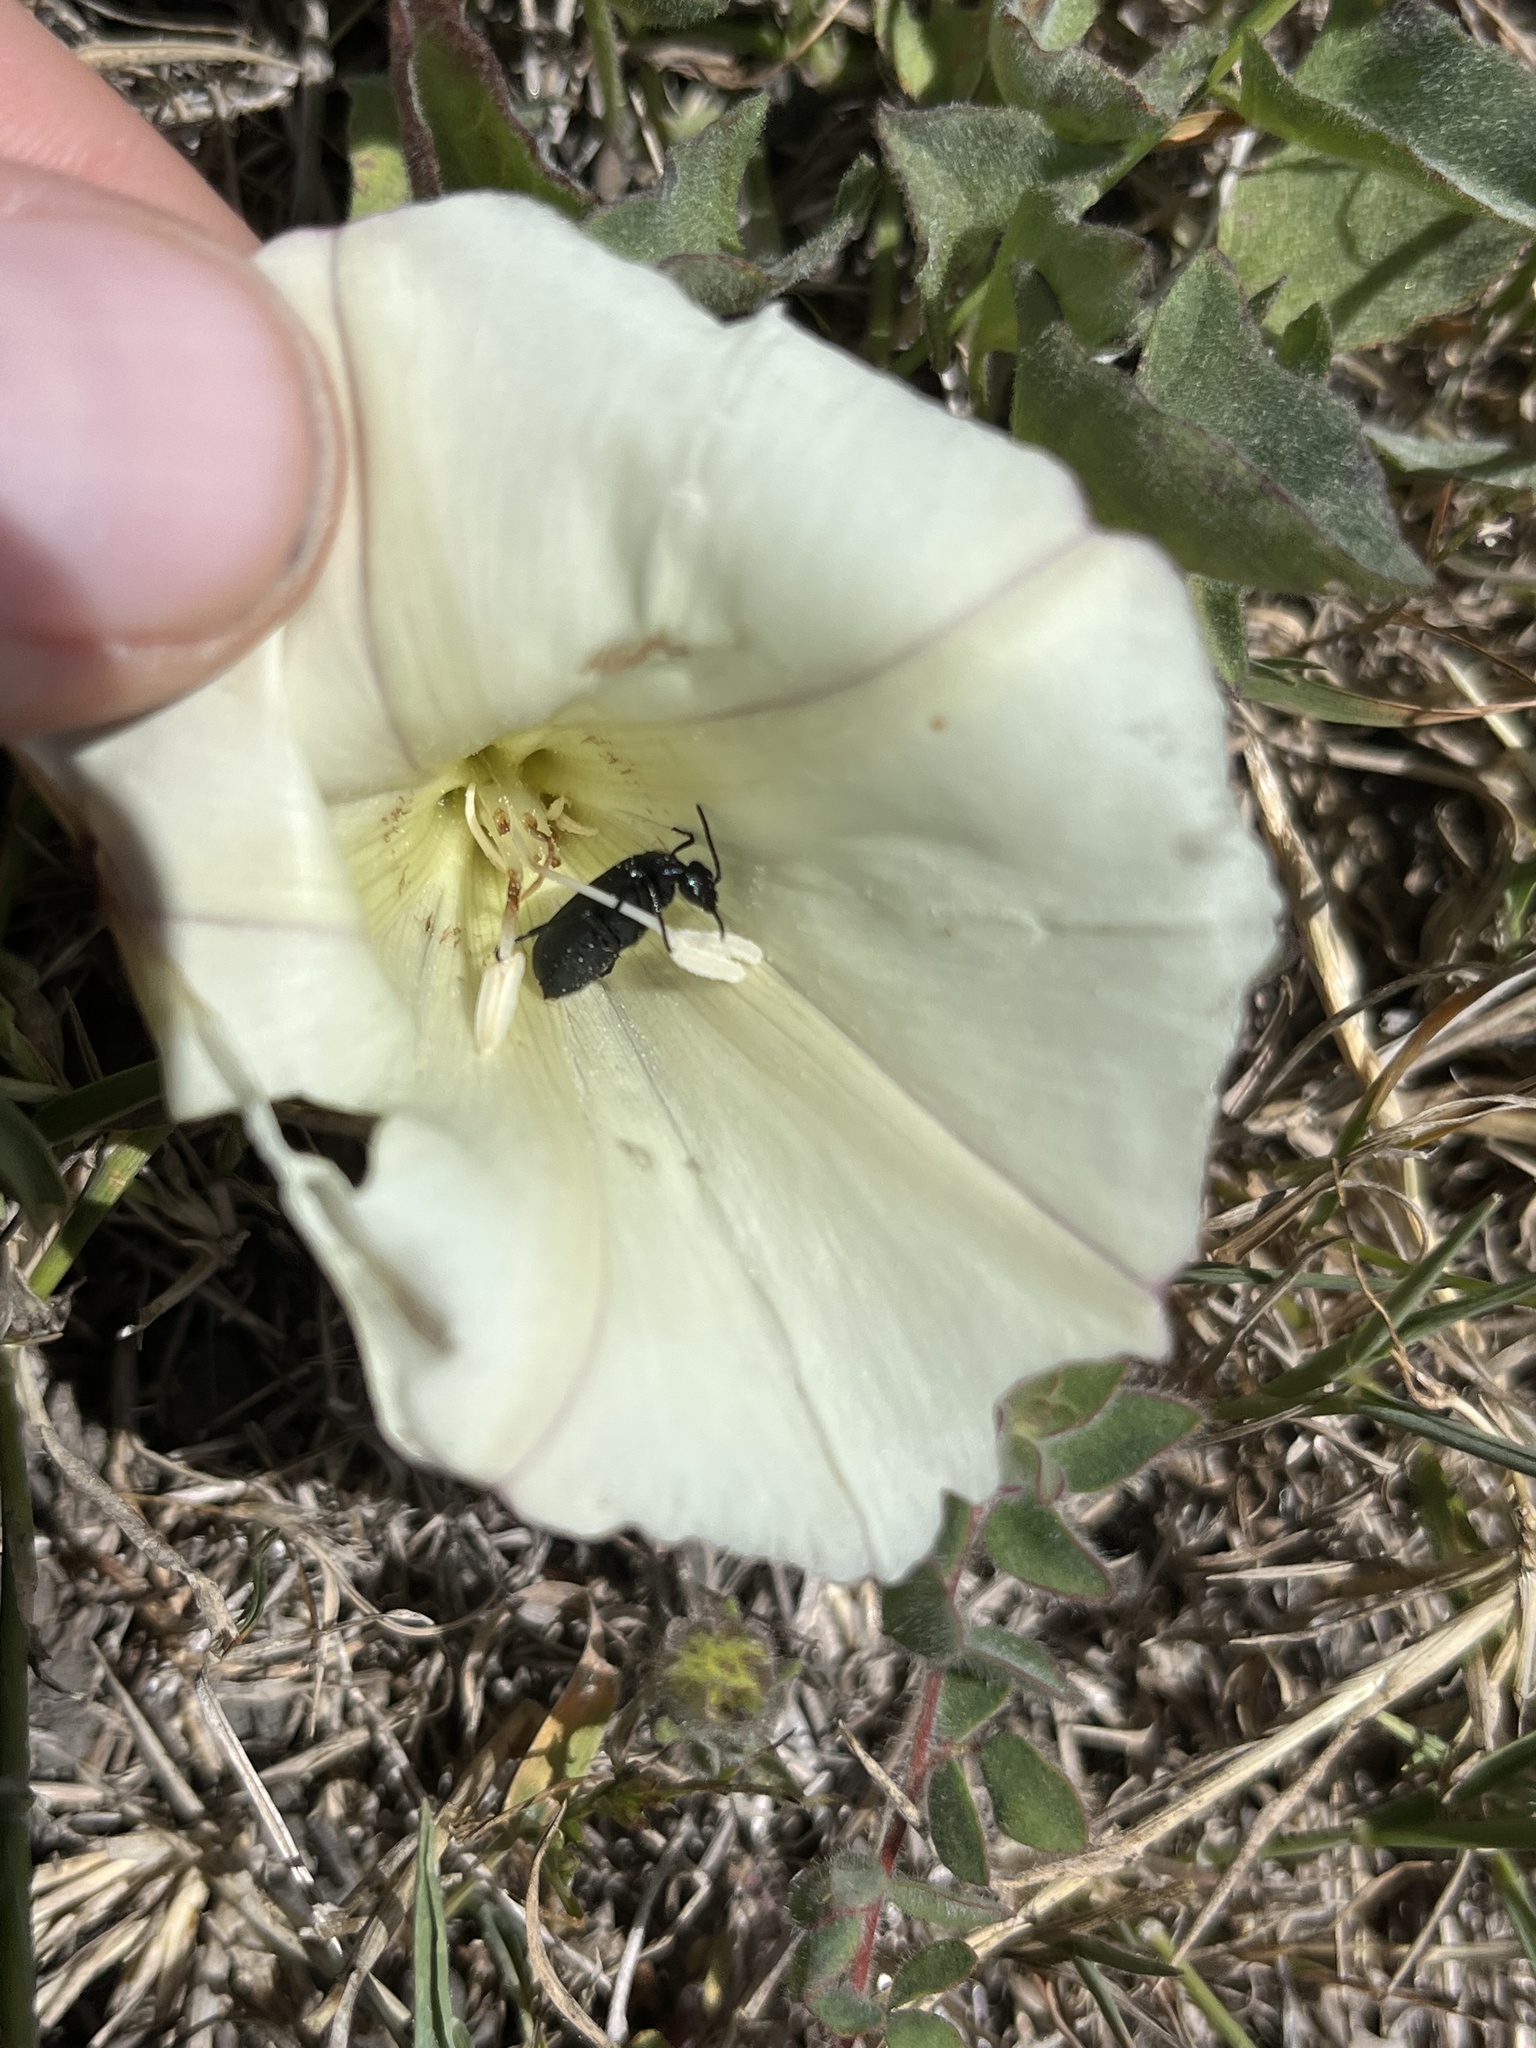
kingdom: Animalia
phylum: Arthropoda
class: Insecta
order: Coleoptera
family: Meloidae
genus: Epicauta
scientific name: Epicauta puncticollis
